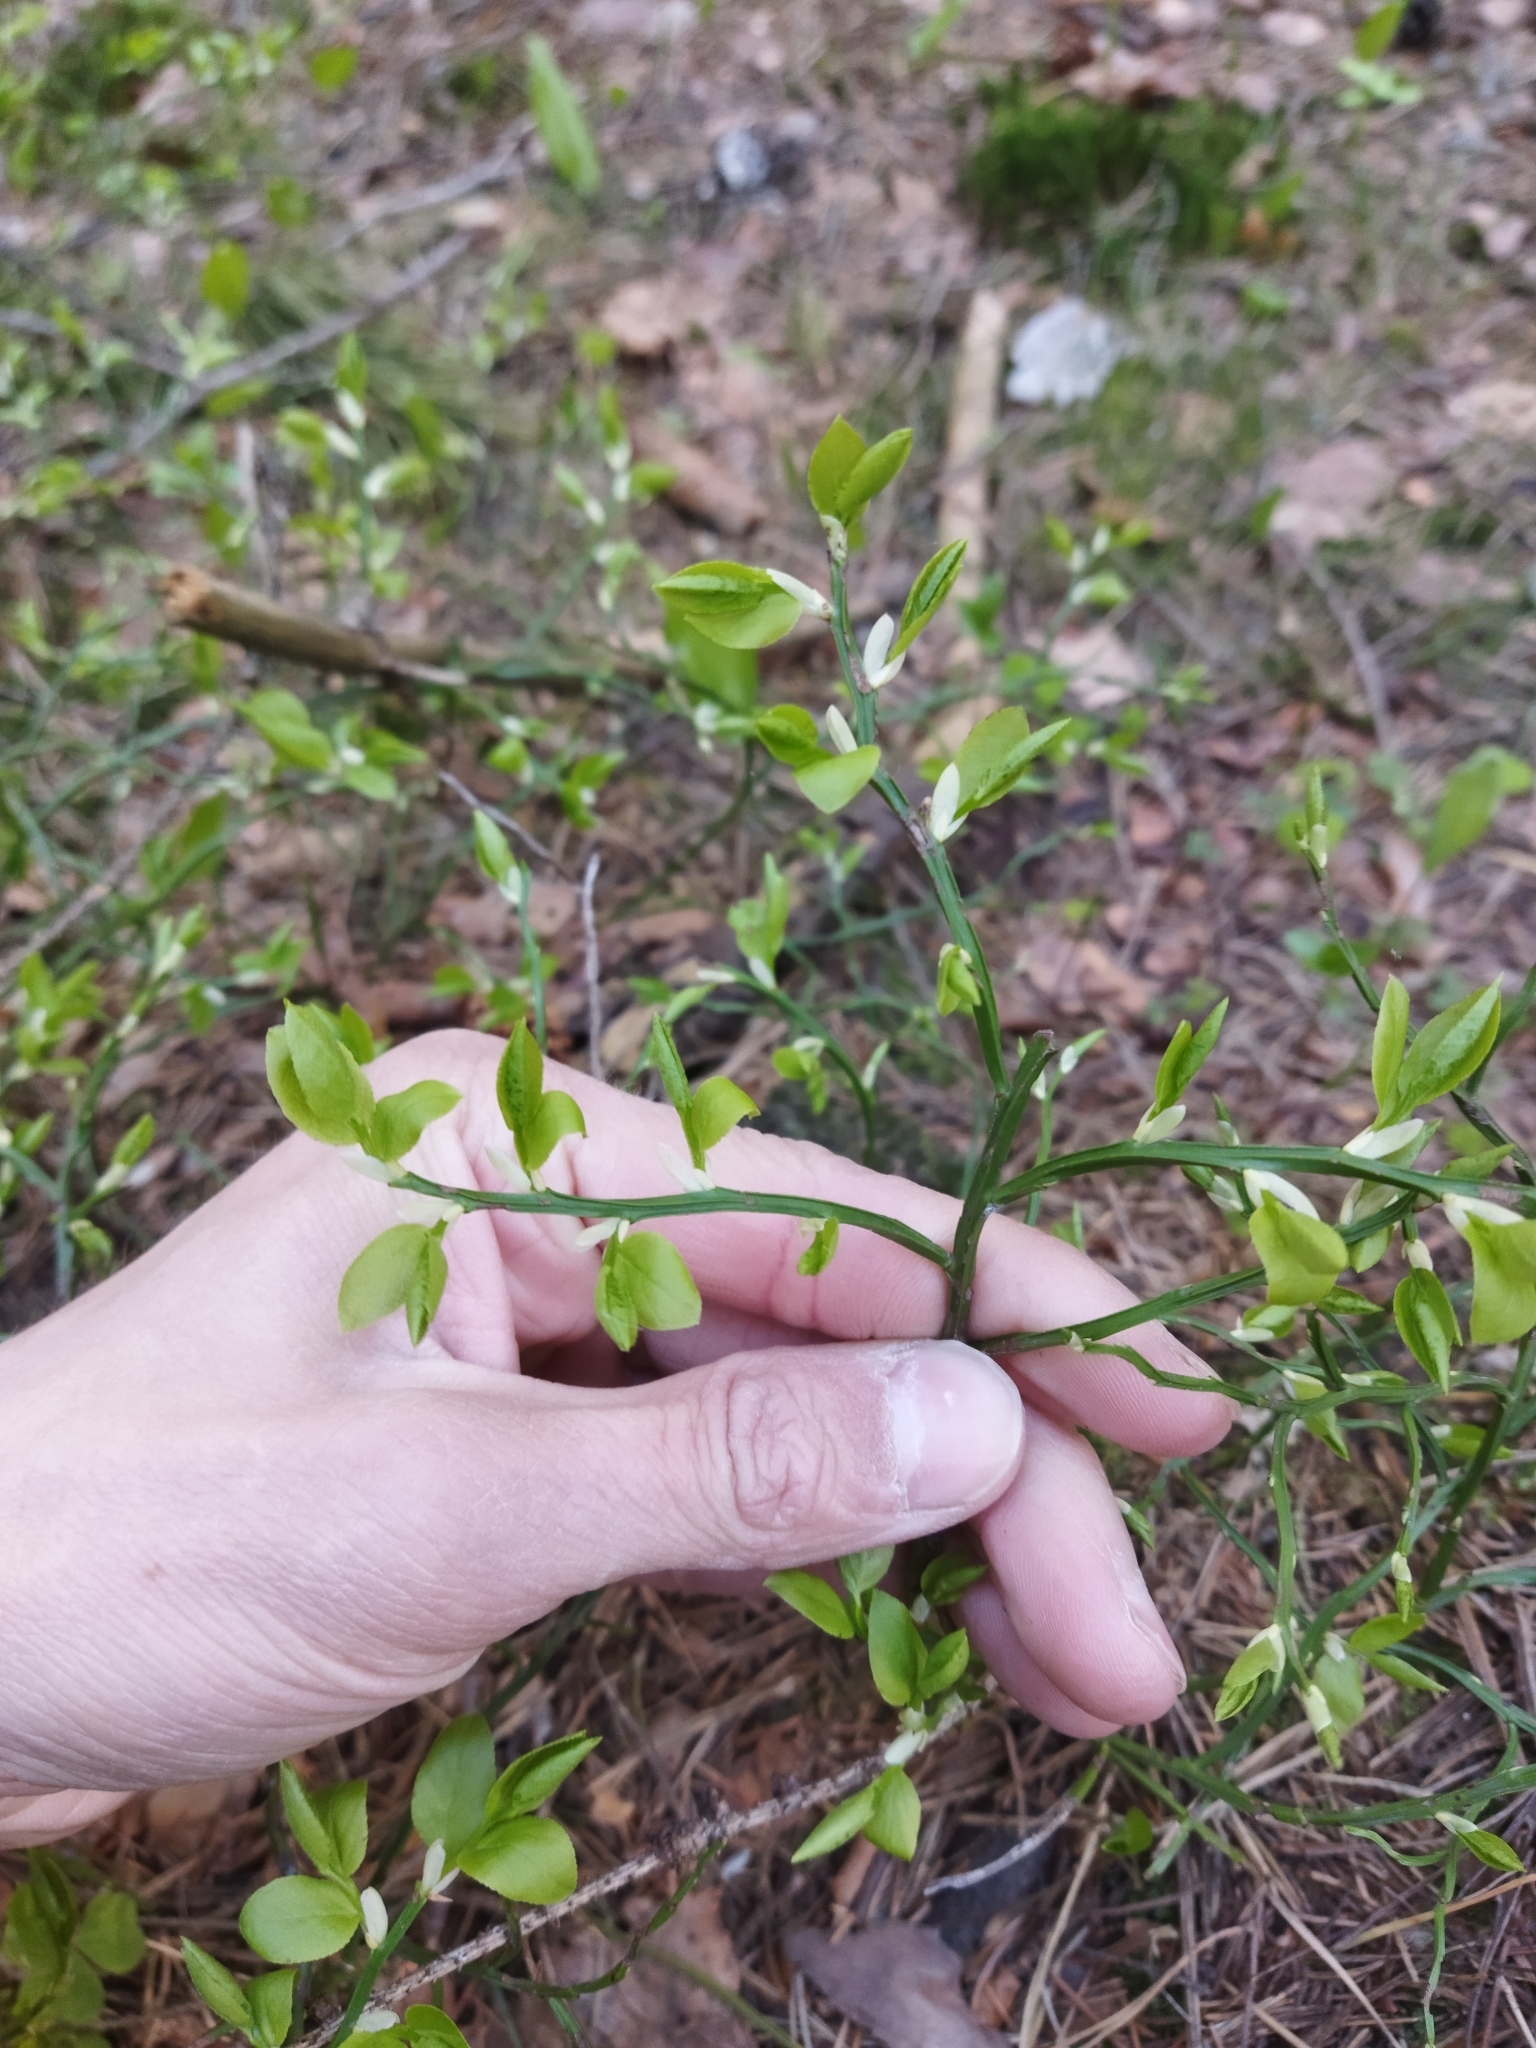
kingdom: Plantae
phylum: Tracheophyta
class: Magnoliopsida
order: Ericales
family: Ericaceae
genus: Vaccinium
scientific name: Vaccinium myrtillus
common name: Bilberry
